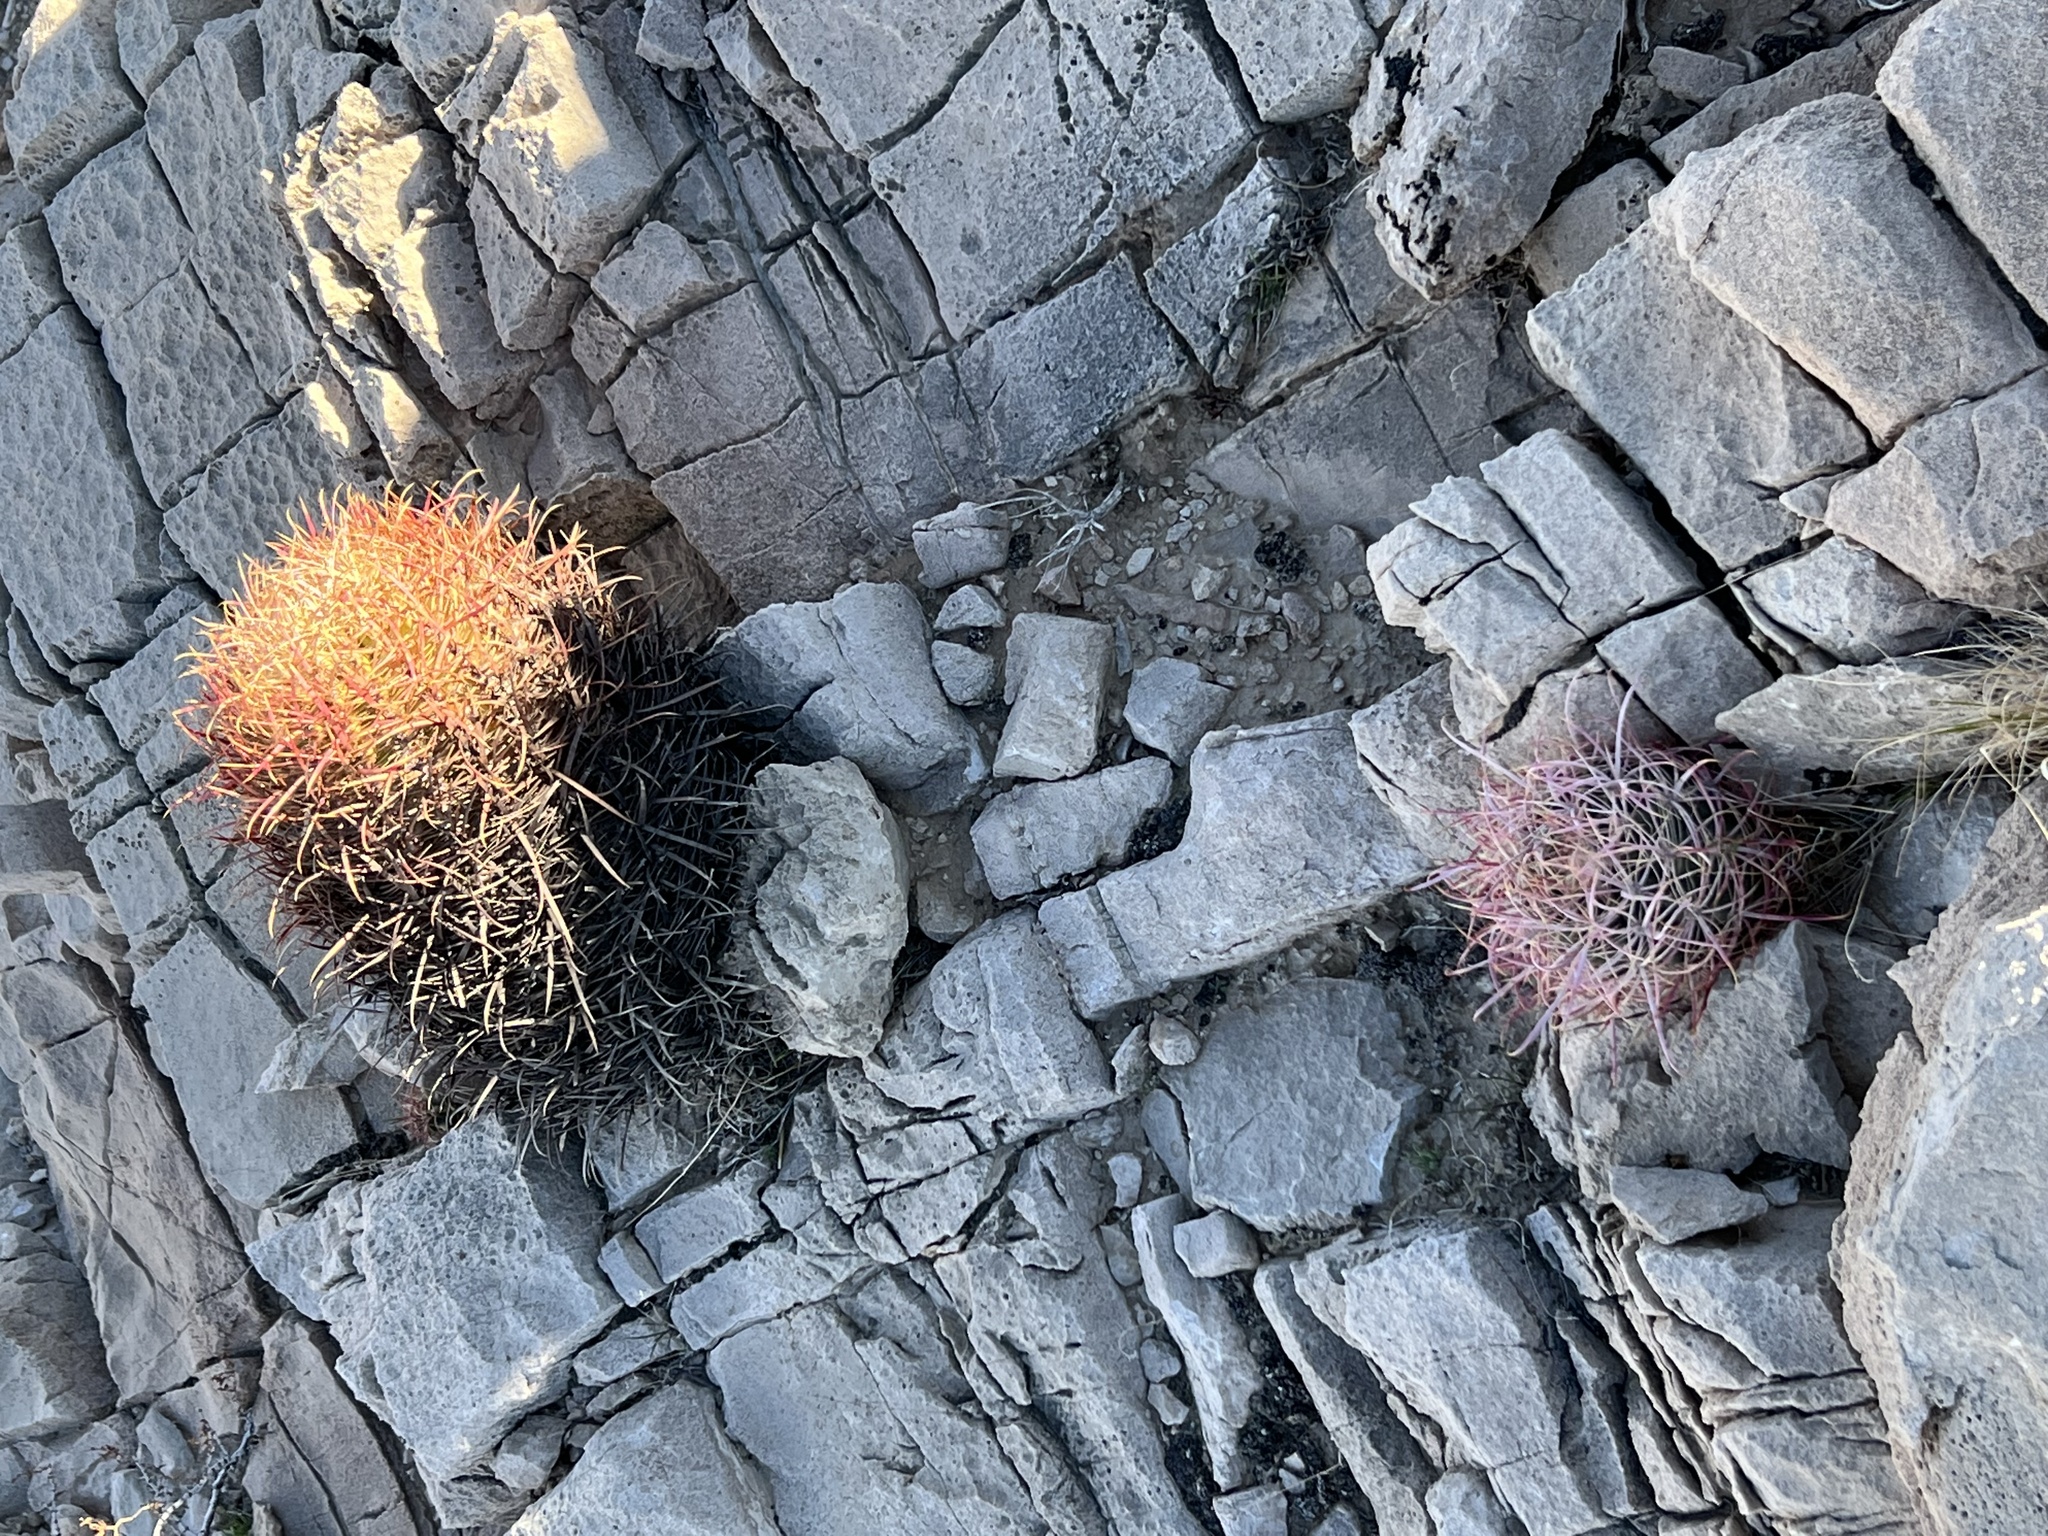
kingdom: Plantae
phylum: Tracheophyta
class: Magnoliopsida
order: Caryophyllales
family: Cactaceae
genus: Ferocactus
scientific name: Ferocactus cylindraceus
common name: California barrel cactus
